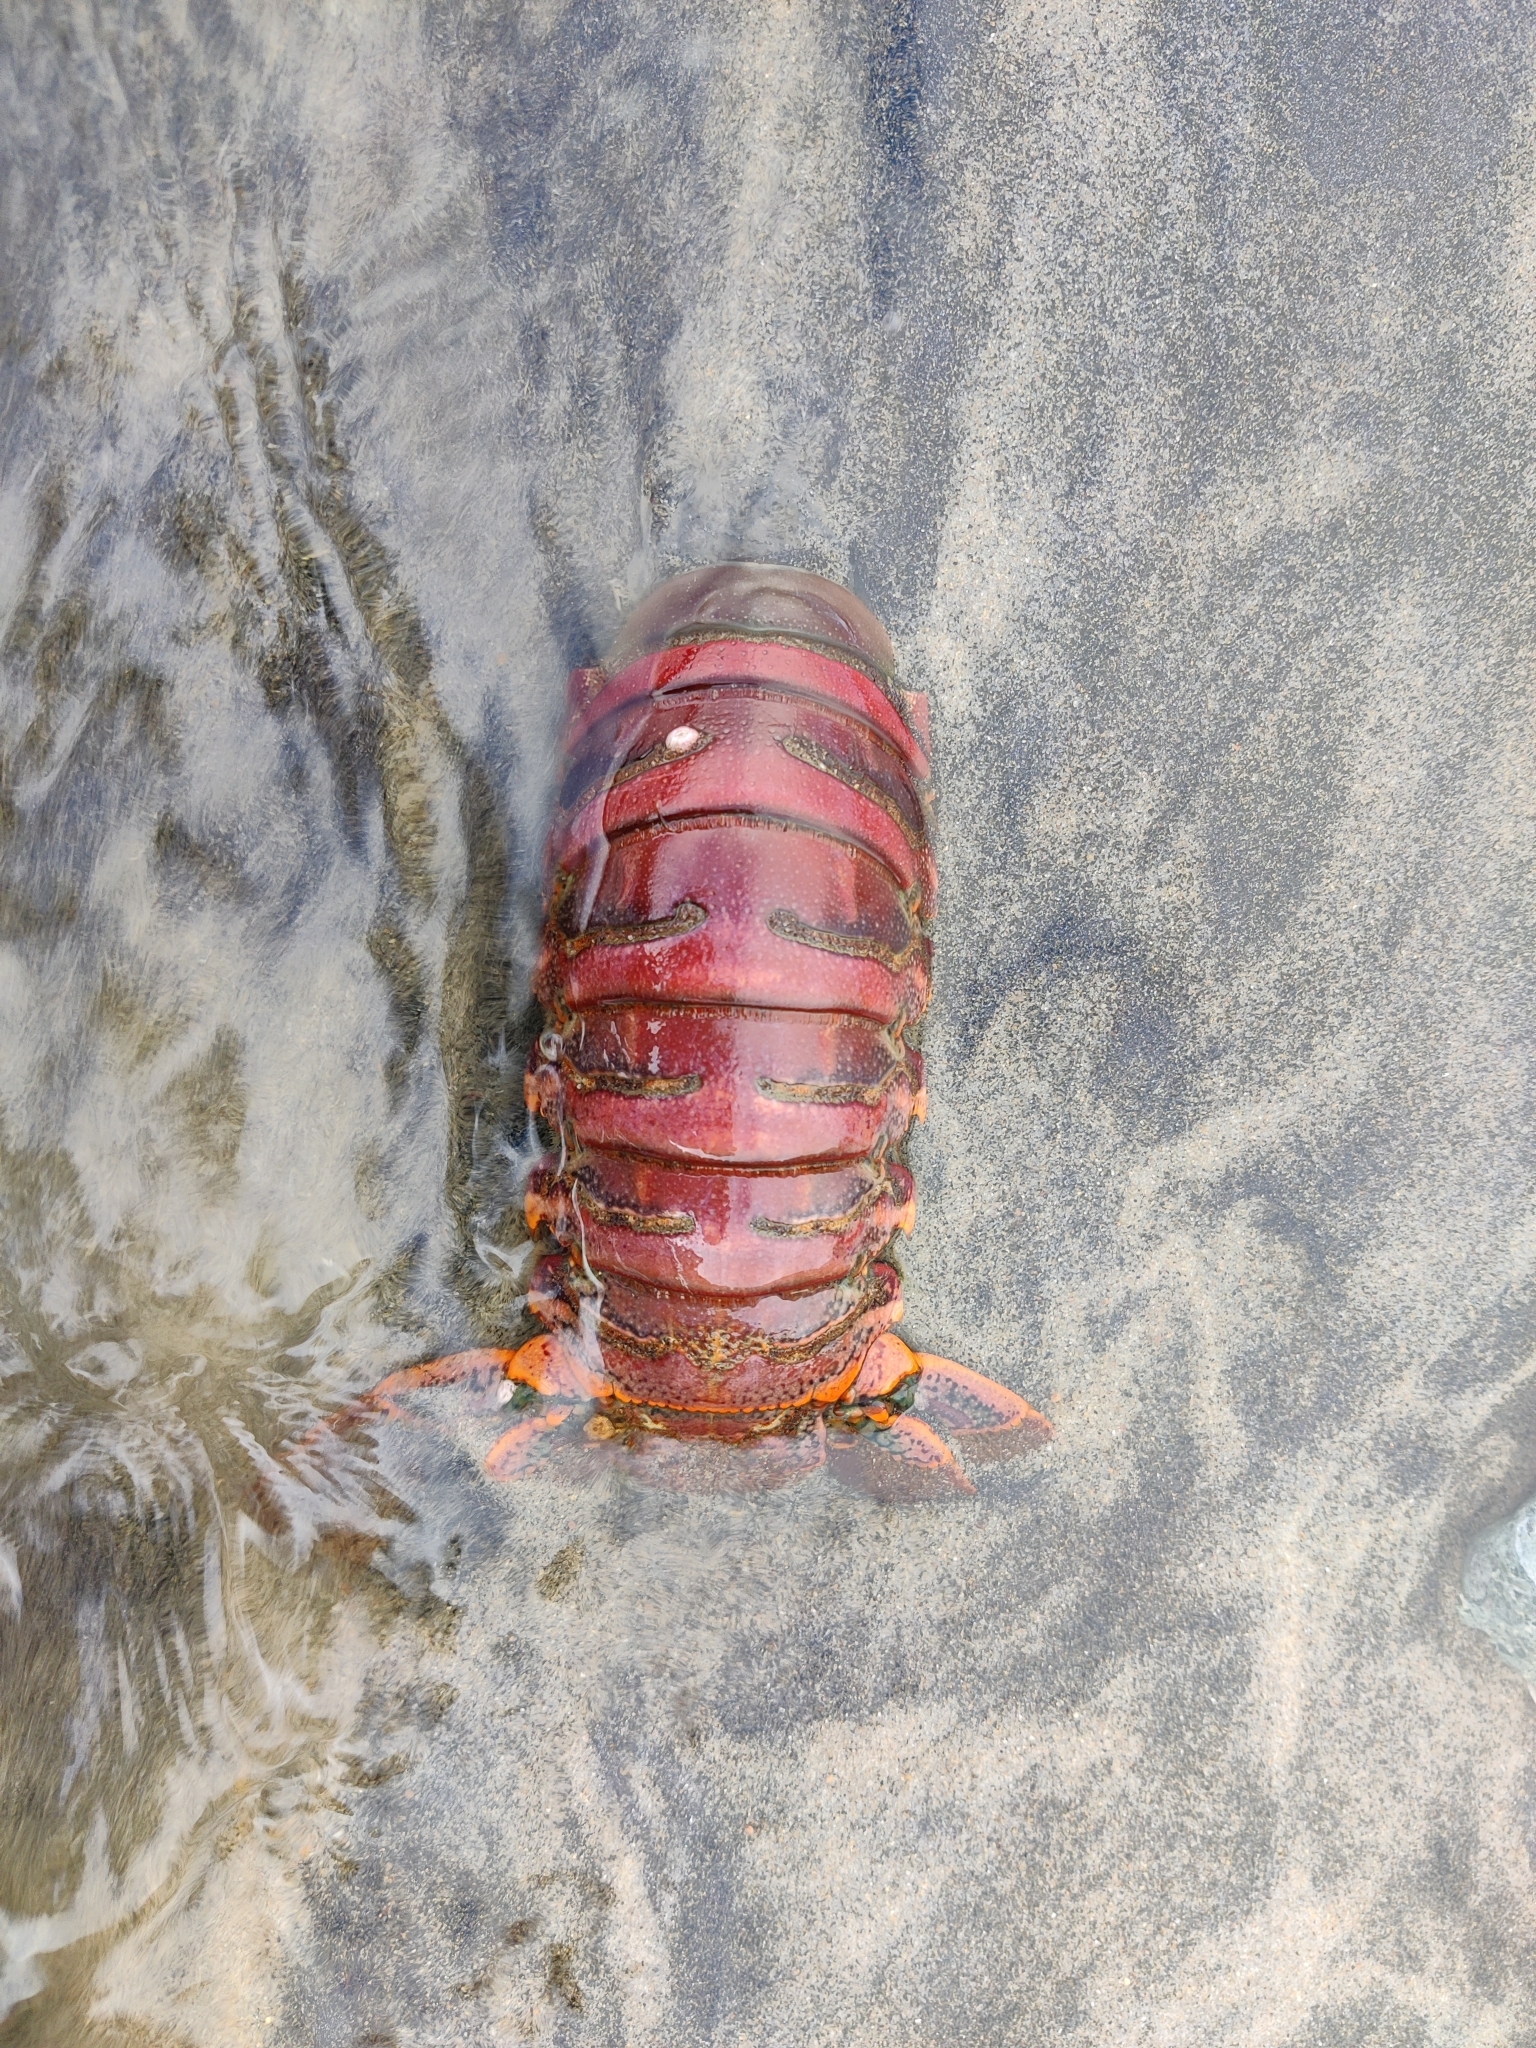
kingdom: Animalia
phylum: Arthropoda
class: Malacostraca
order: Decapoda
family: Palinuridae
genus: Panulirus
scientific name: Panulirus interruptus
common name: California spiny lobster
